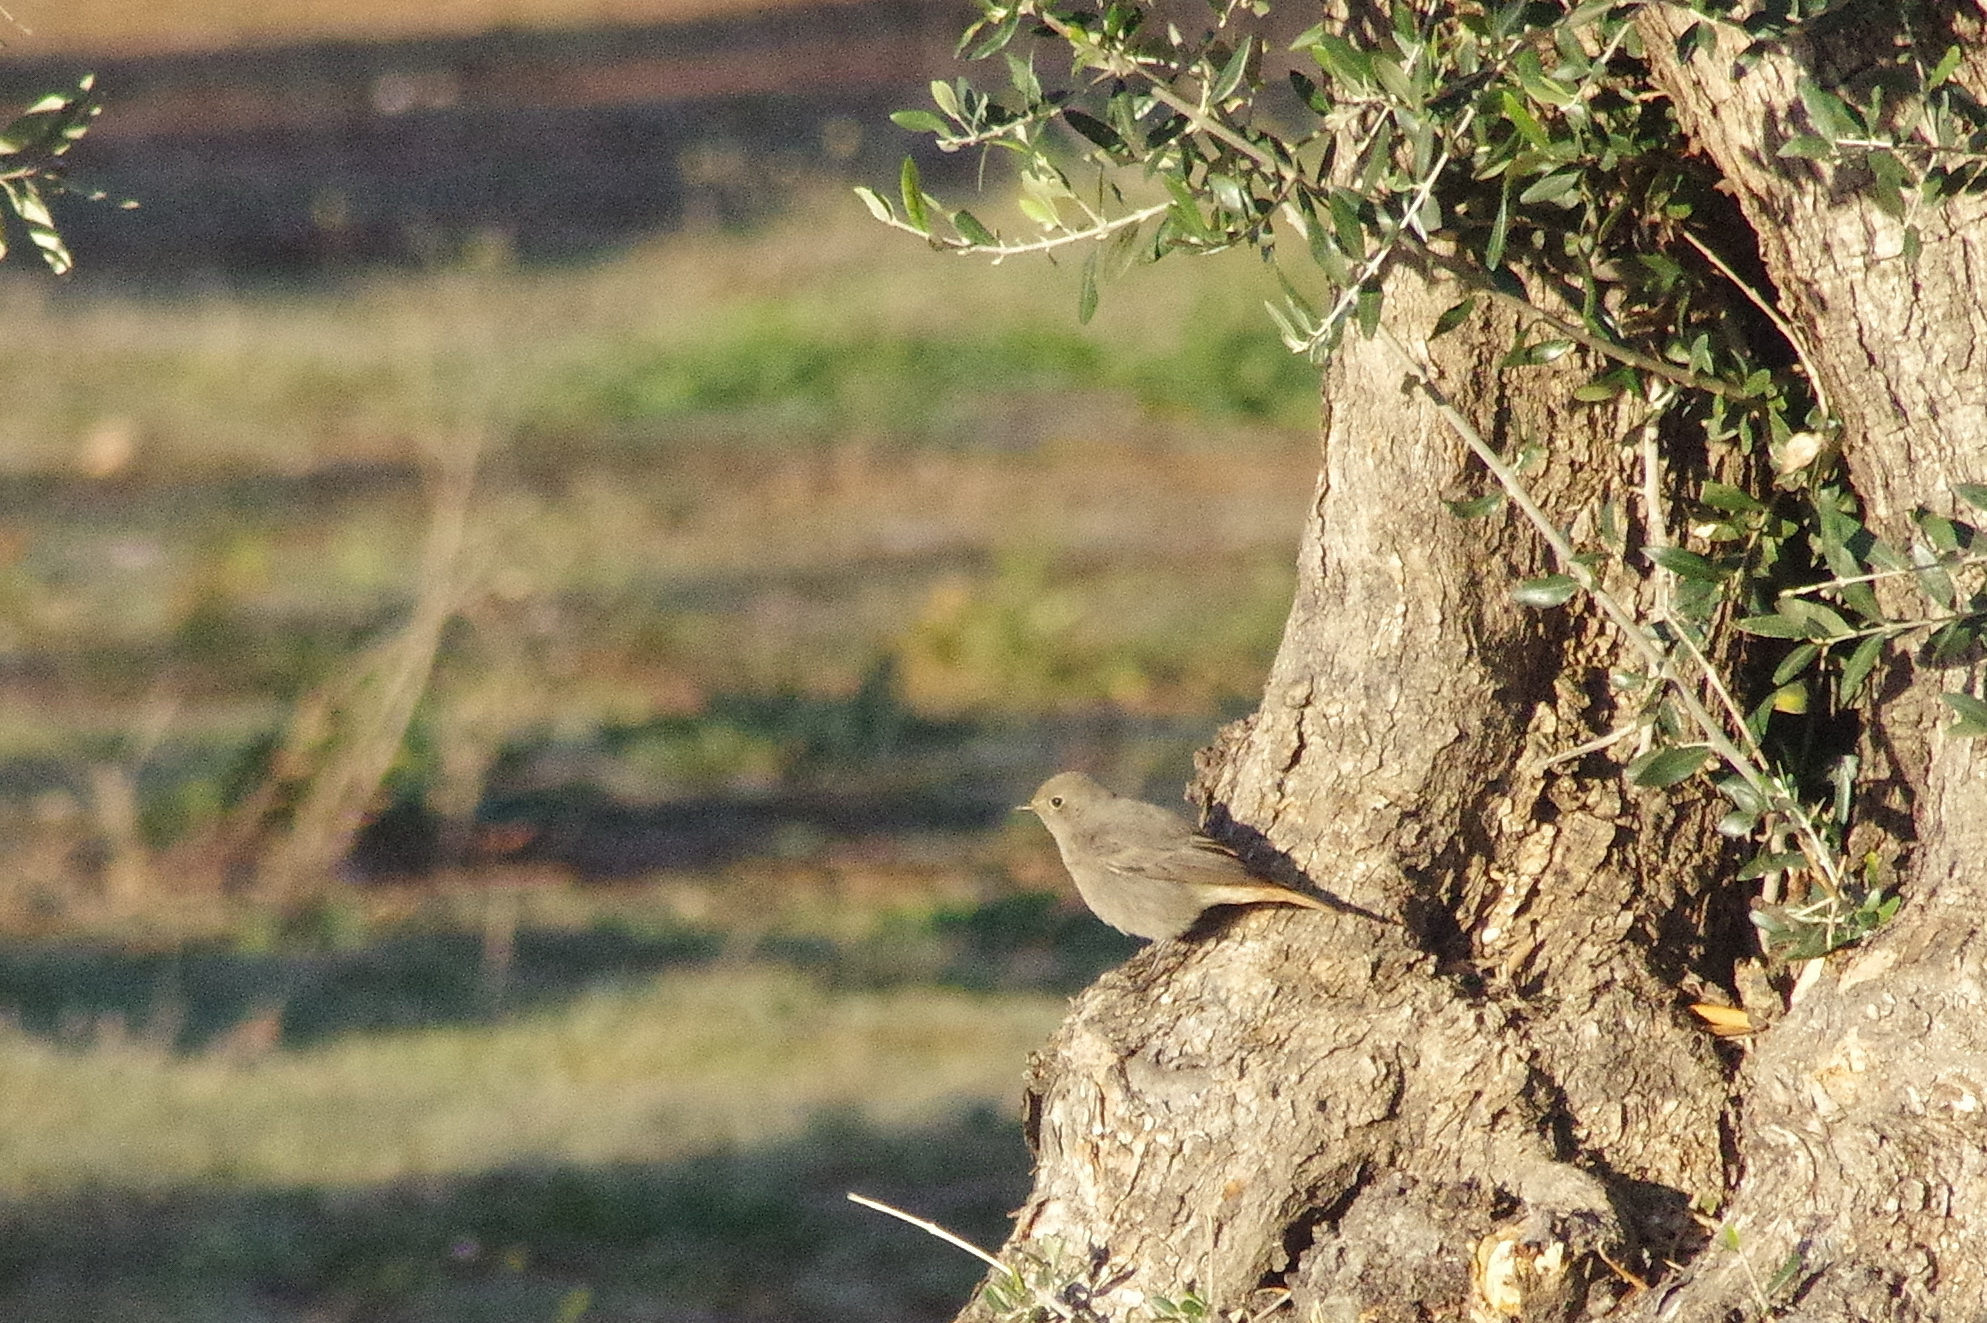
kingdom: Animalia
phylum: Chordata
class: Aves
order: Passeriformes
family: Muscicapidae
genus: Phoenicurus
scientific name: Phoenicurus ochruros
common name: Black redstart
